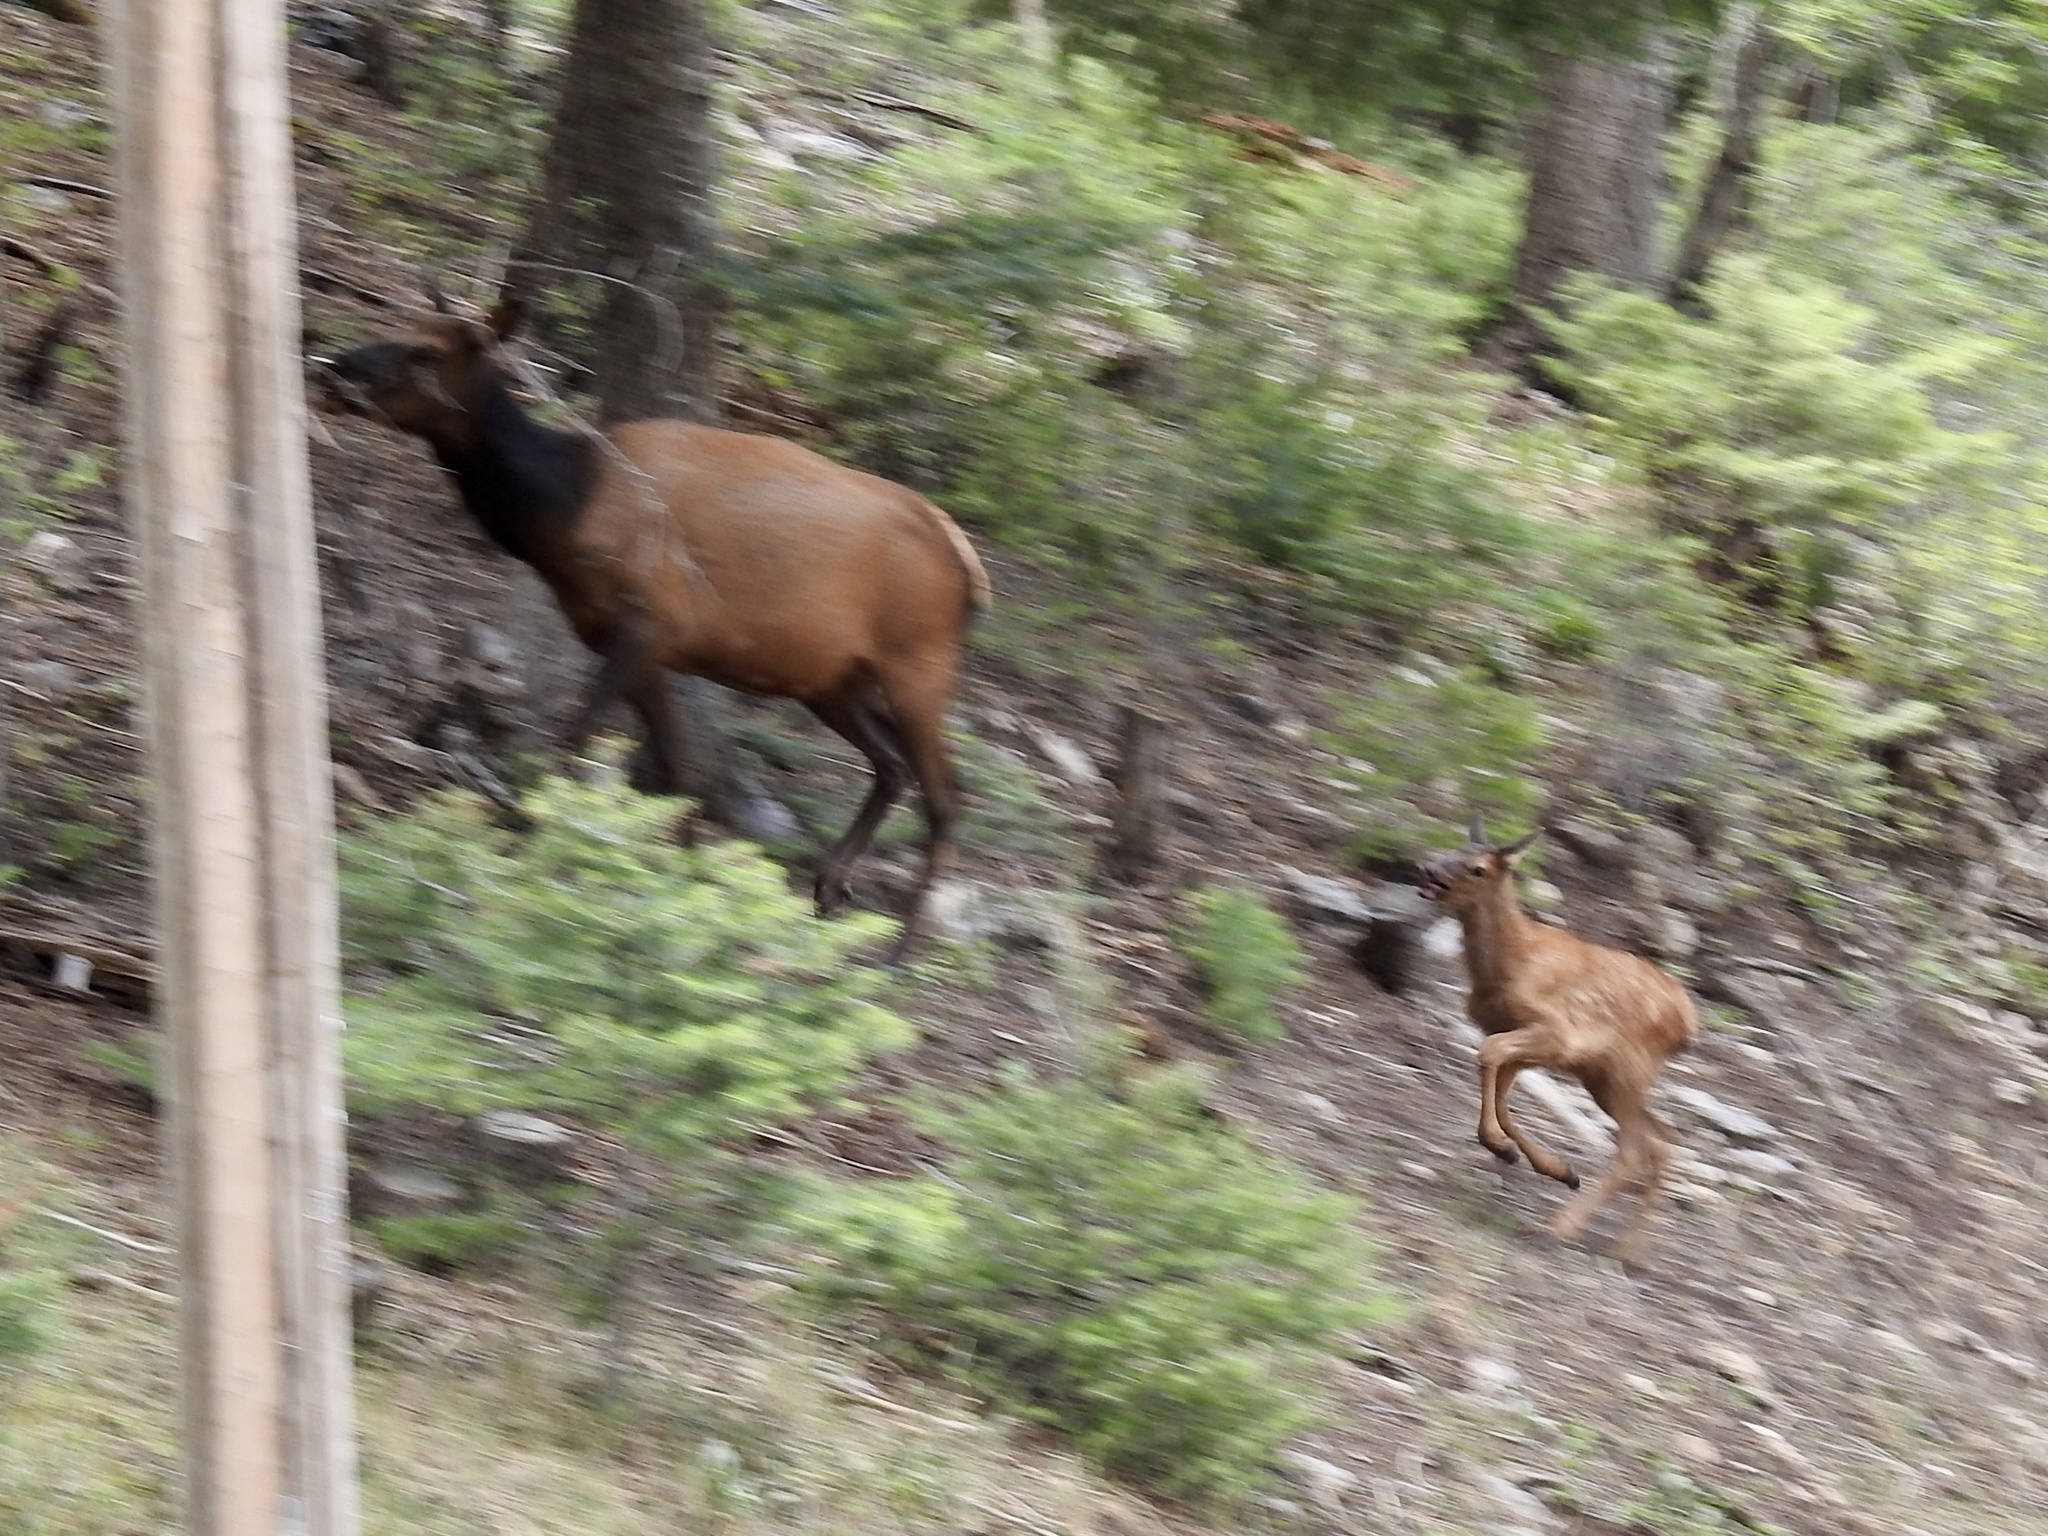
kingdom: Animalia
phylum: Chordata
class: Mammalia
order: Artiodactyla
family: Cervidae
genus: Cervus
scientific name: Cervus elaphus
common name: Red deer
